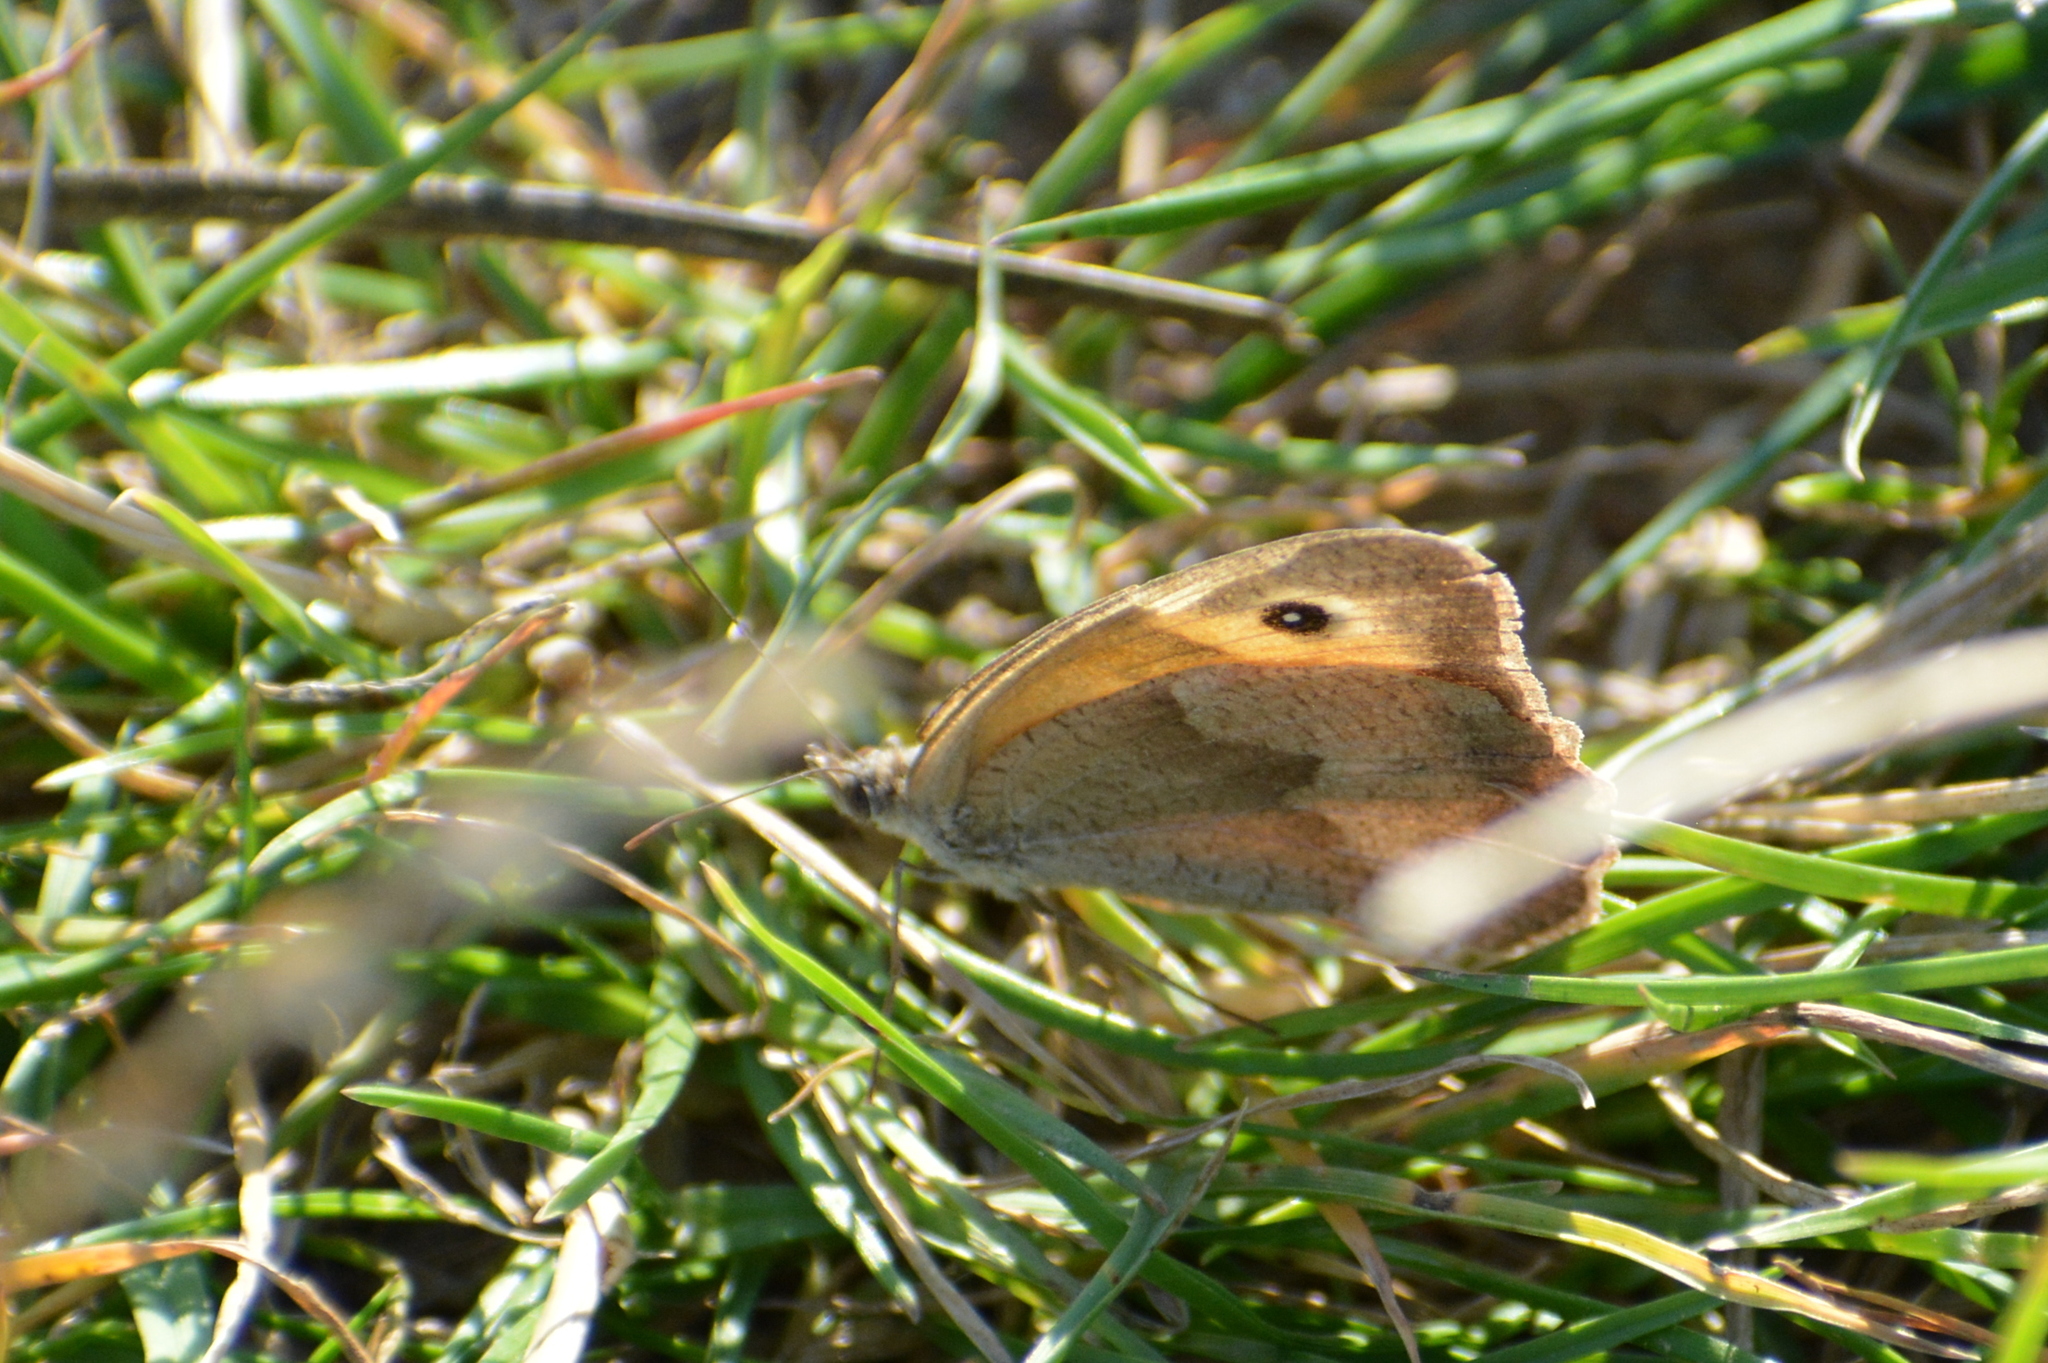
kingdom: Animalia
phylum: Arthropoda
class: Insecta
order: Lepidoptera
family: Nymphalidae
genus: Maniola
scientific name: Maniola jurtina
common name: Meadow brown
